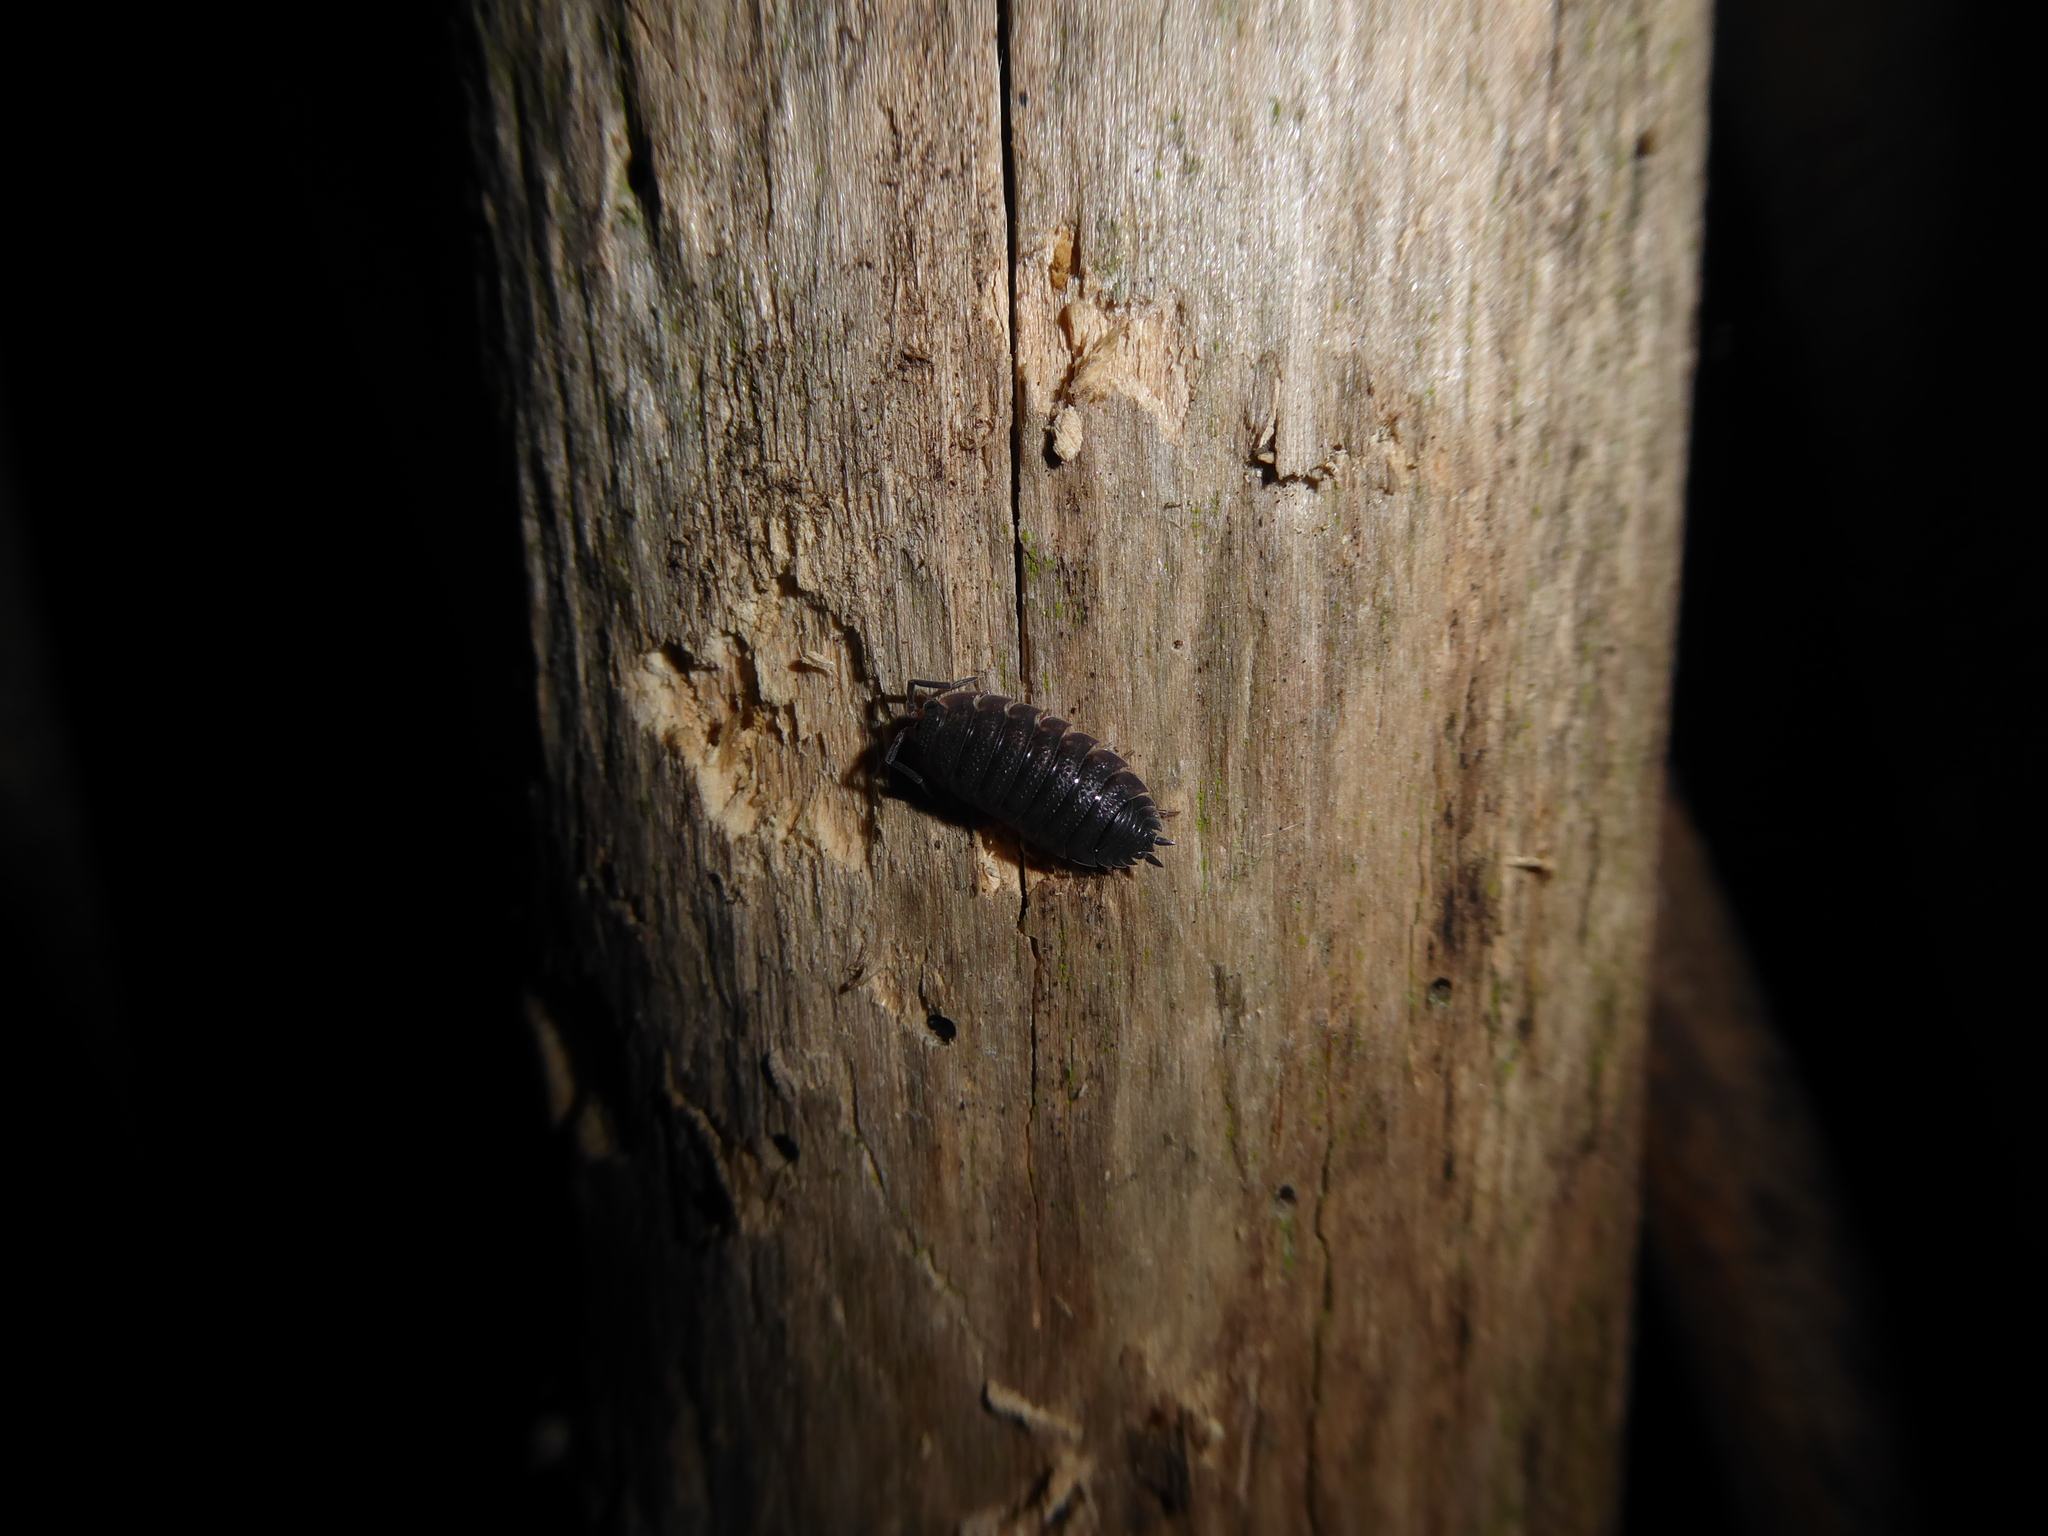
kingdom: Animalia
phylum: Arthropoda
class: Malacostraca
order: Isopoda
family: Porcellionidae
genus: Porcellio
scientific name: Porcellio scaber
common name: Common rough woodlouse
